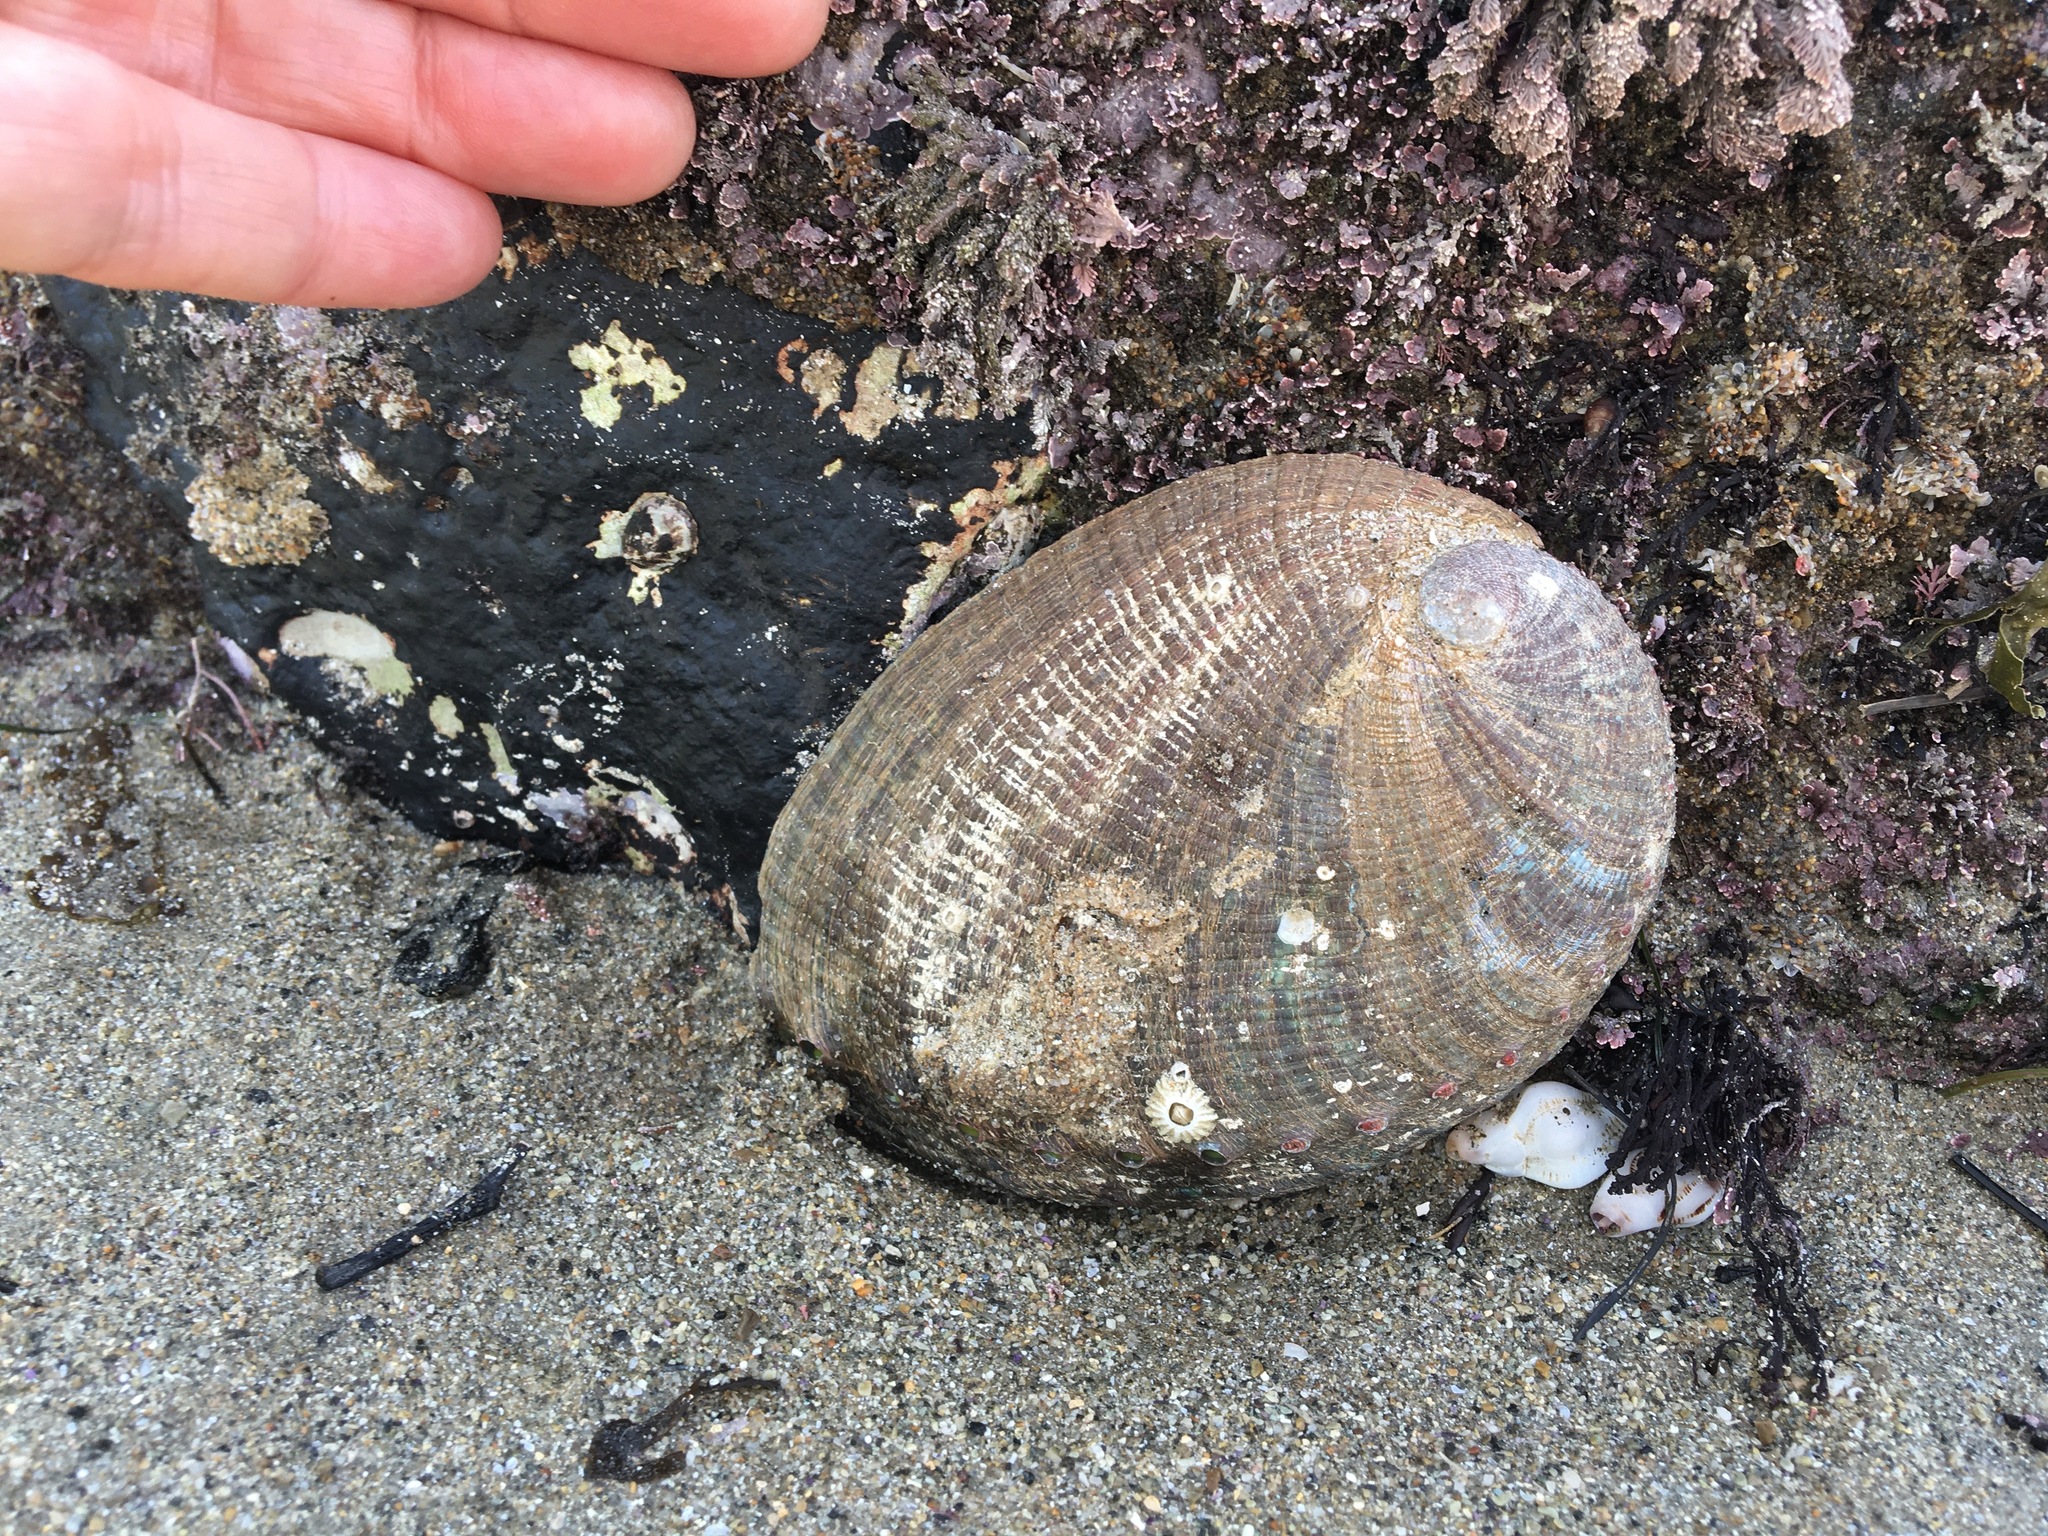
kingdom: Animalia
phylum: Mollusca
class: Gastropoda
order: Lepetellida
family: Haliotidae
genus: Haliotis
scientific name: Haliotis fulgens
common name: Green abalone
